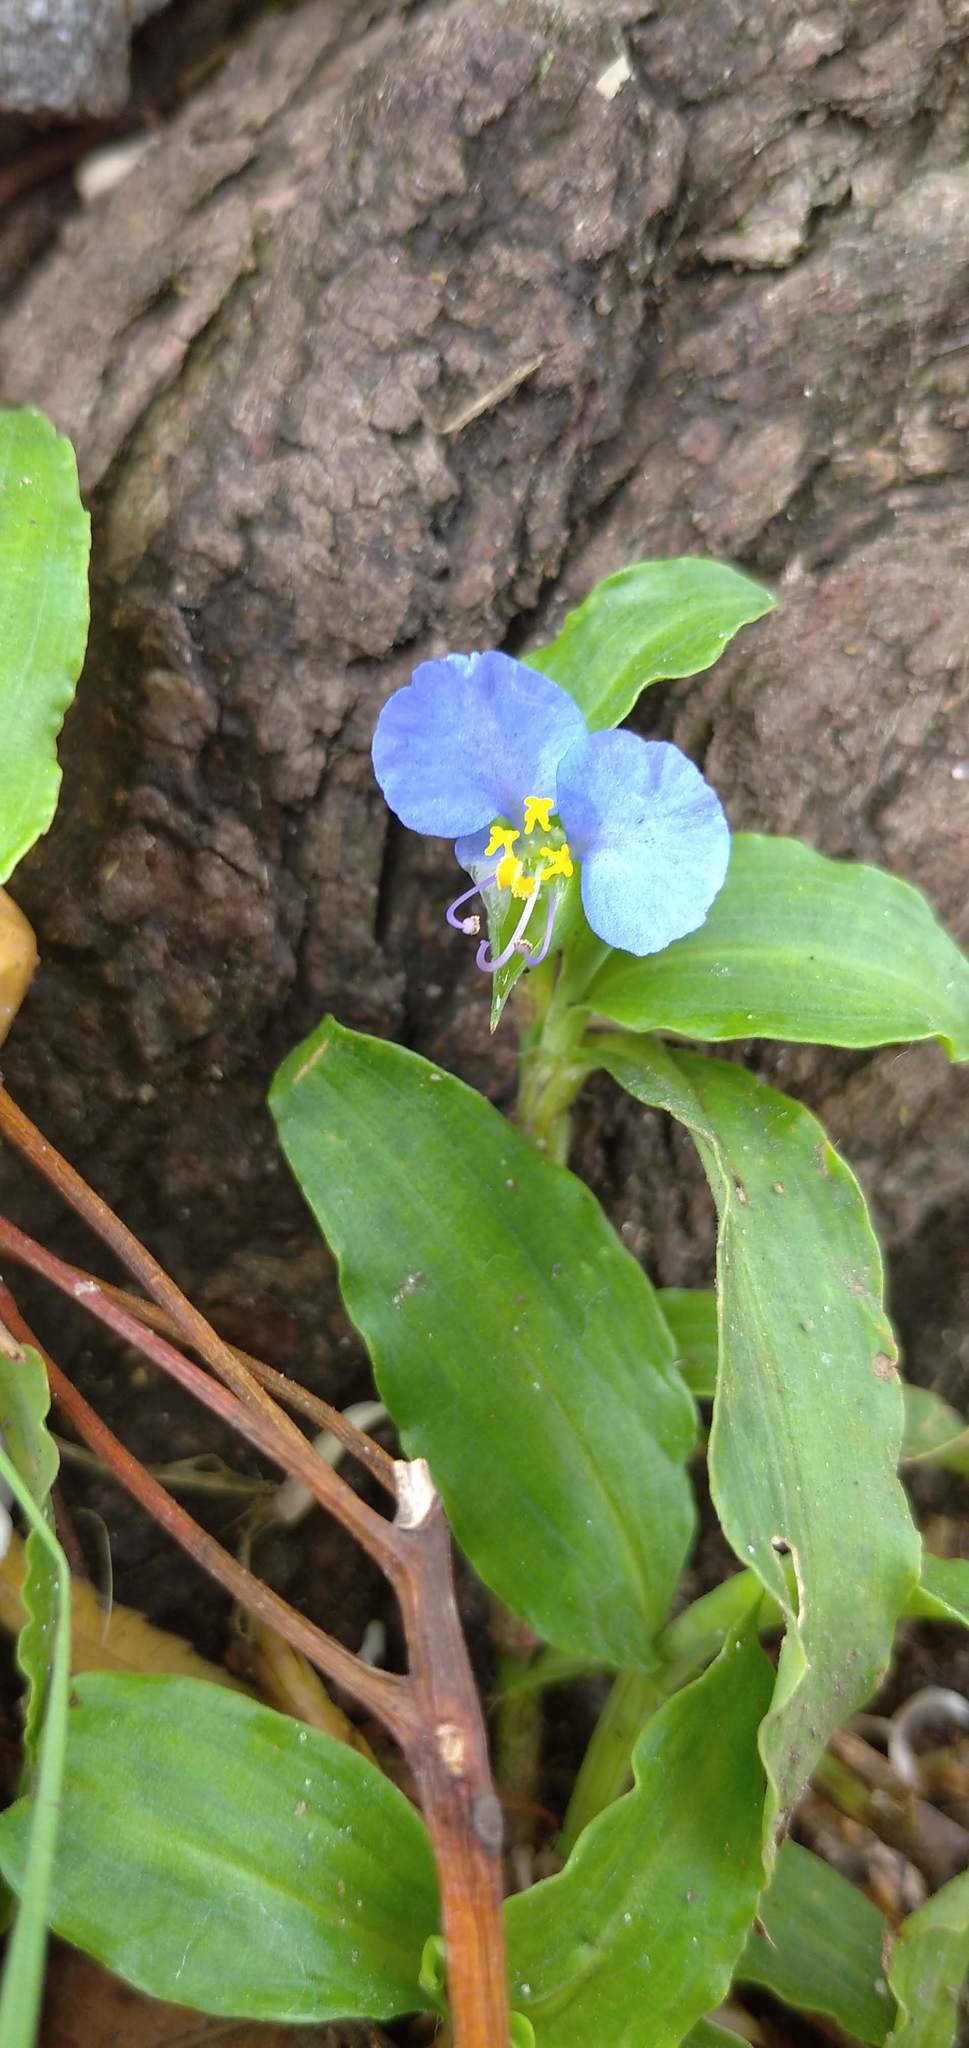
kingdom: Plantae
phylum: Tracheophyta
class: Liliopsida
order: Commelinales
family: Commelinaceae
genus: Commelina
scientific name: Commelina erecta
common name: Blousel blommetjie
